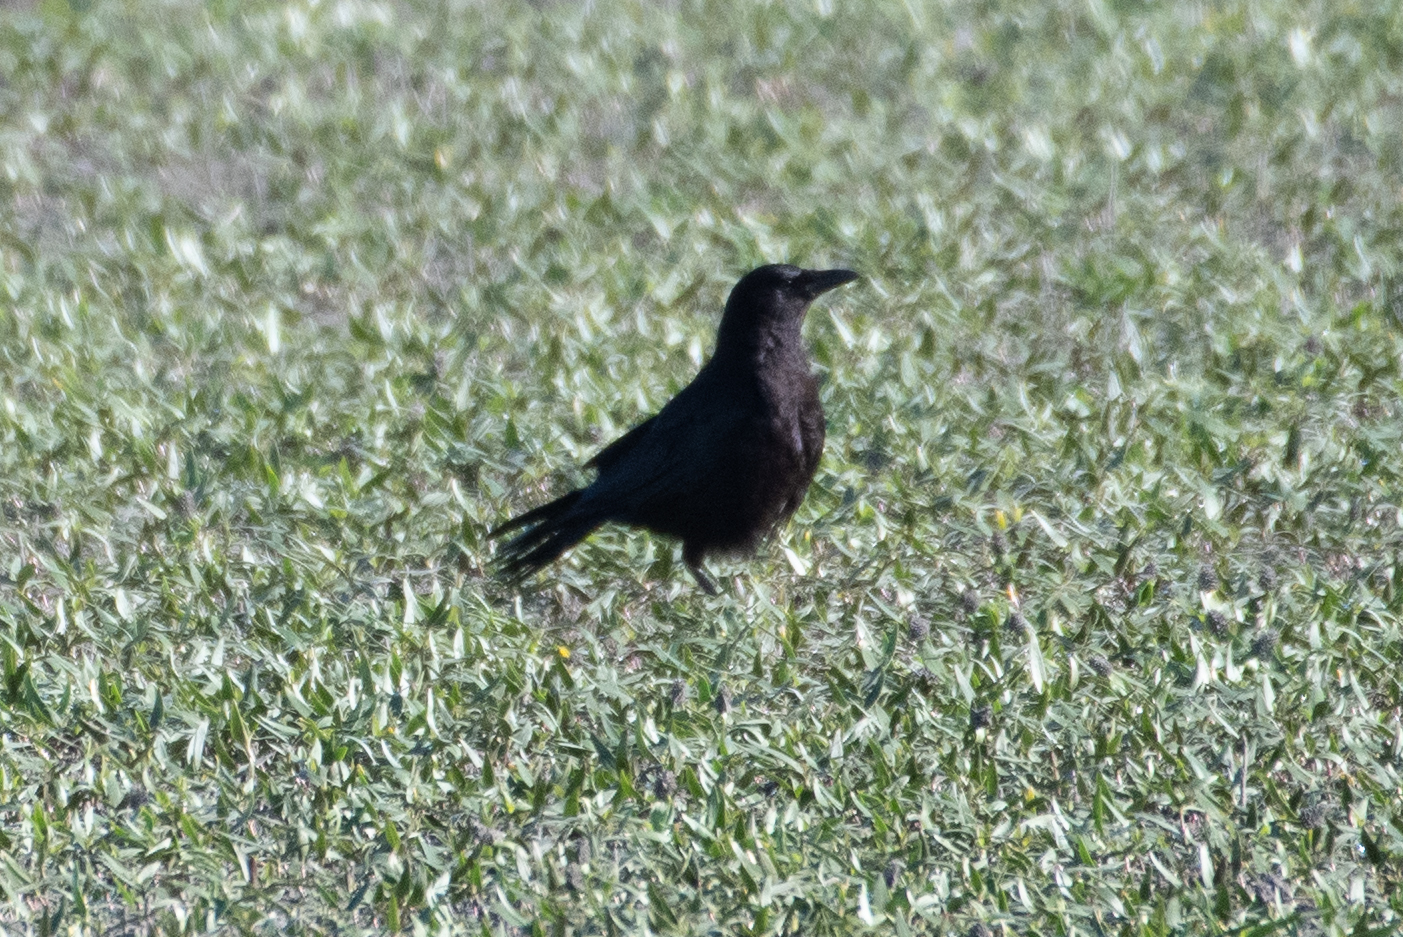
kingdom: Animalia
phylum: Chordata
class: Aves
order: Passeriformes
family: Corvidae
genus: Corvus
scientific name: Corvus brachyrhynchos
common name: American crow
